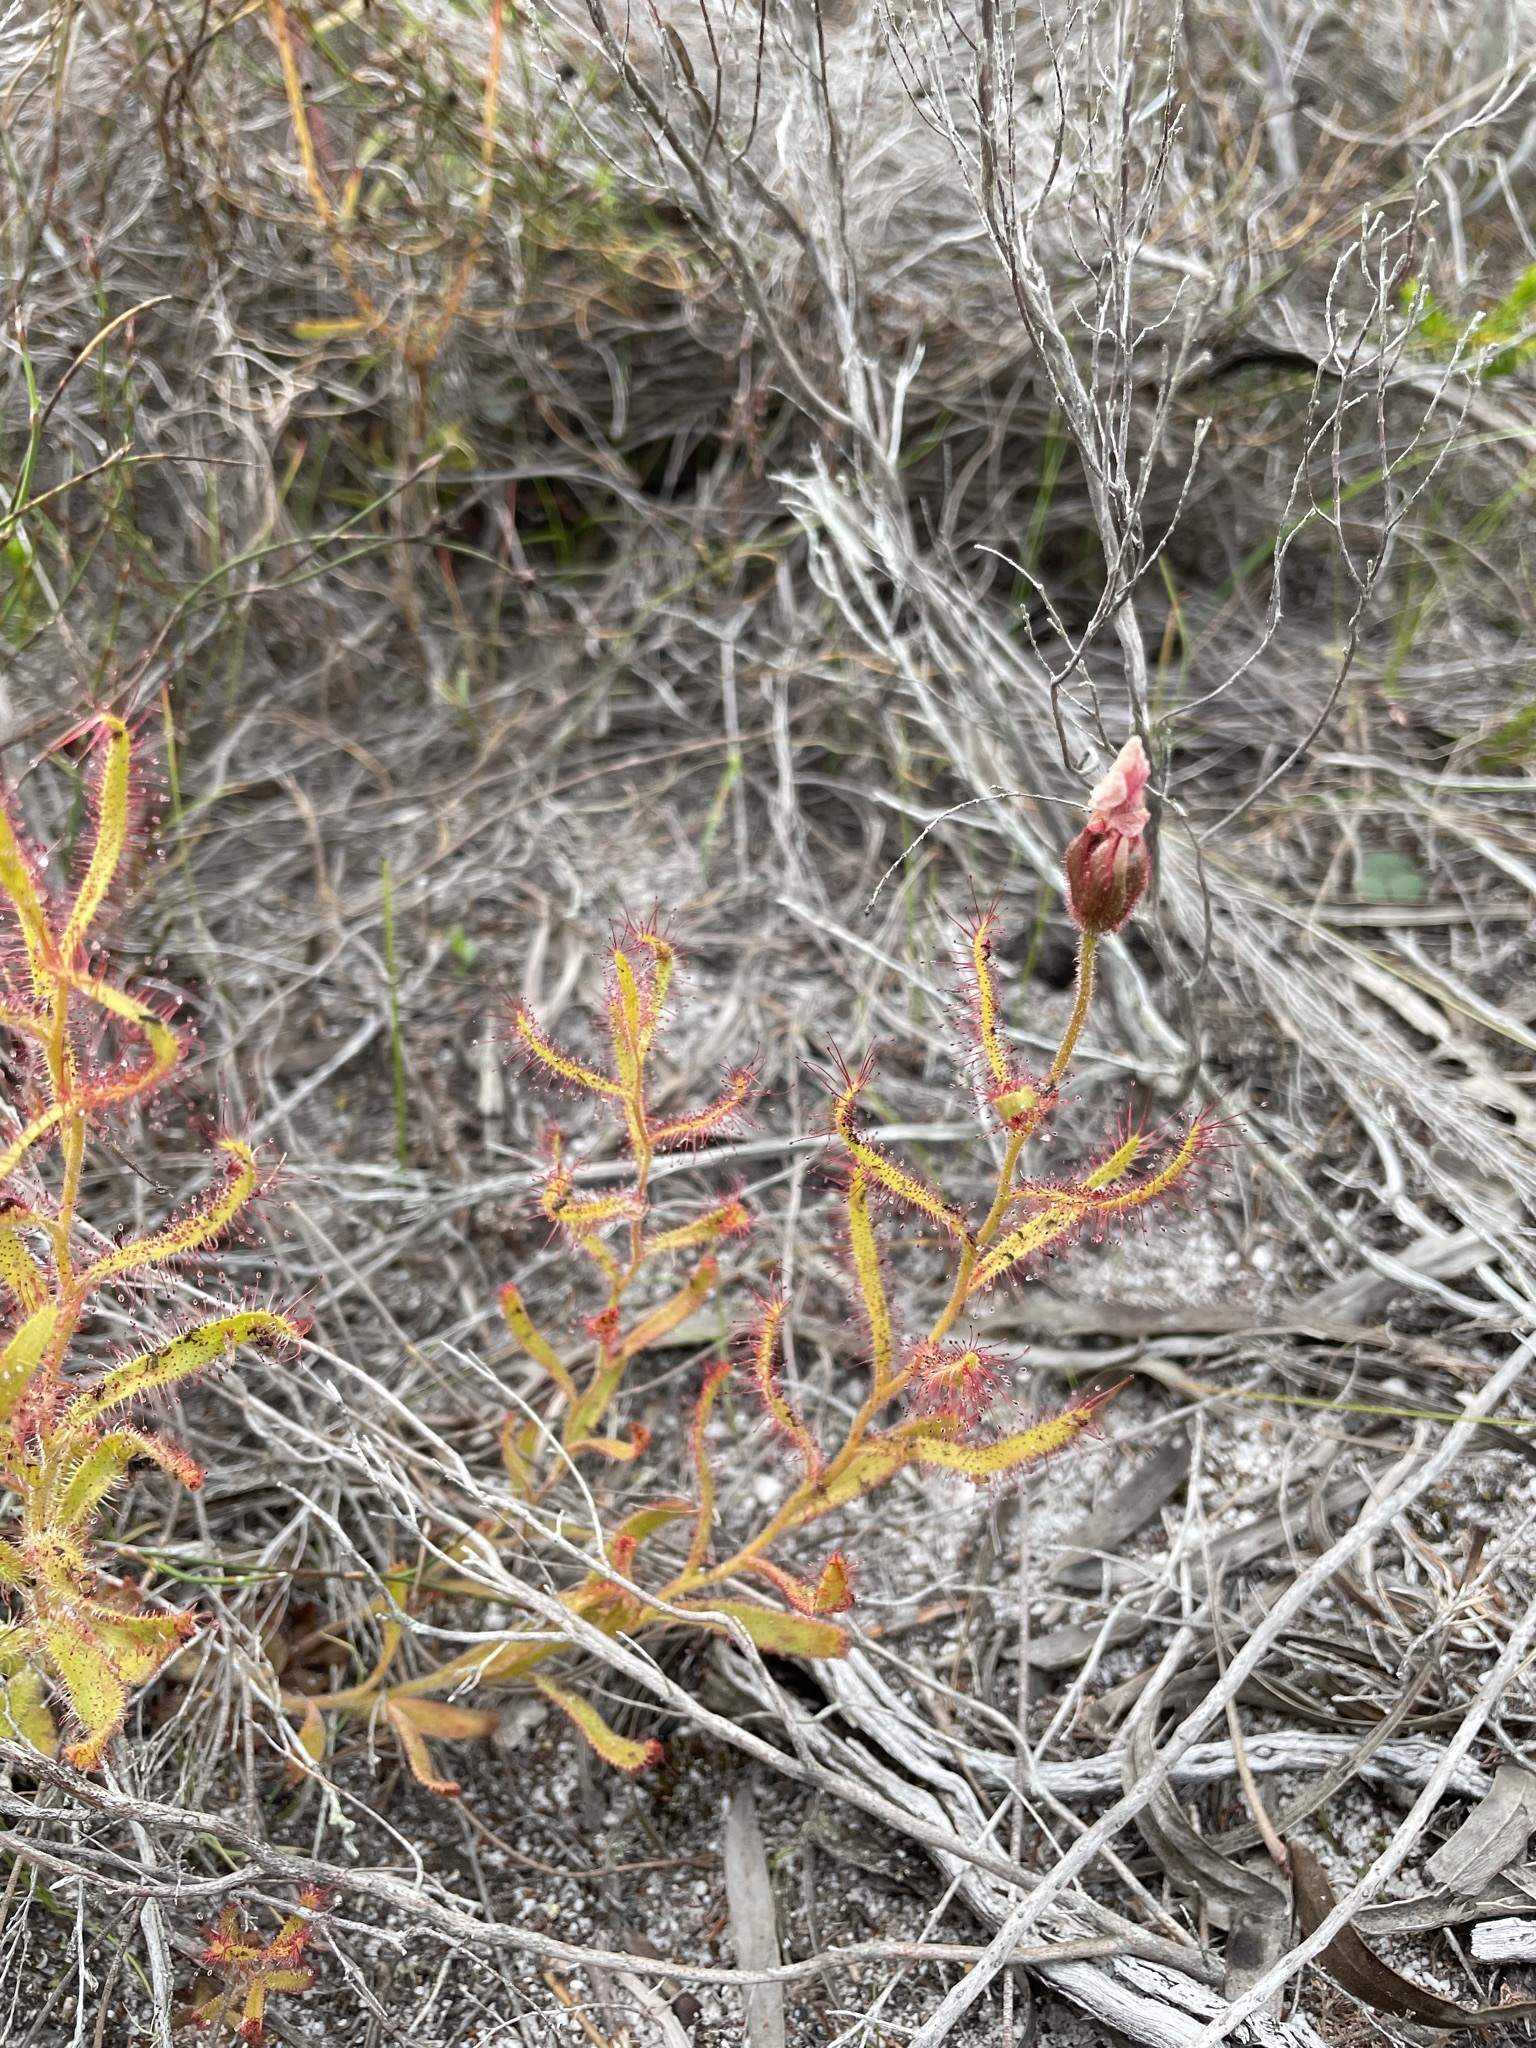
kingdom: Plantae
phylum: Tracheophyta
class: Magnoliopsida
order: Caryophyllales
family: Droseraceae
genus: Drosera
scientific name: Drosera cistiflora
